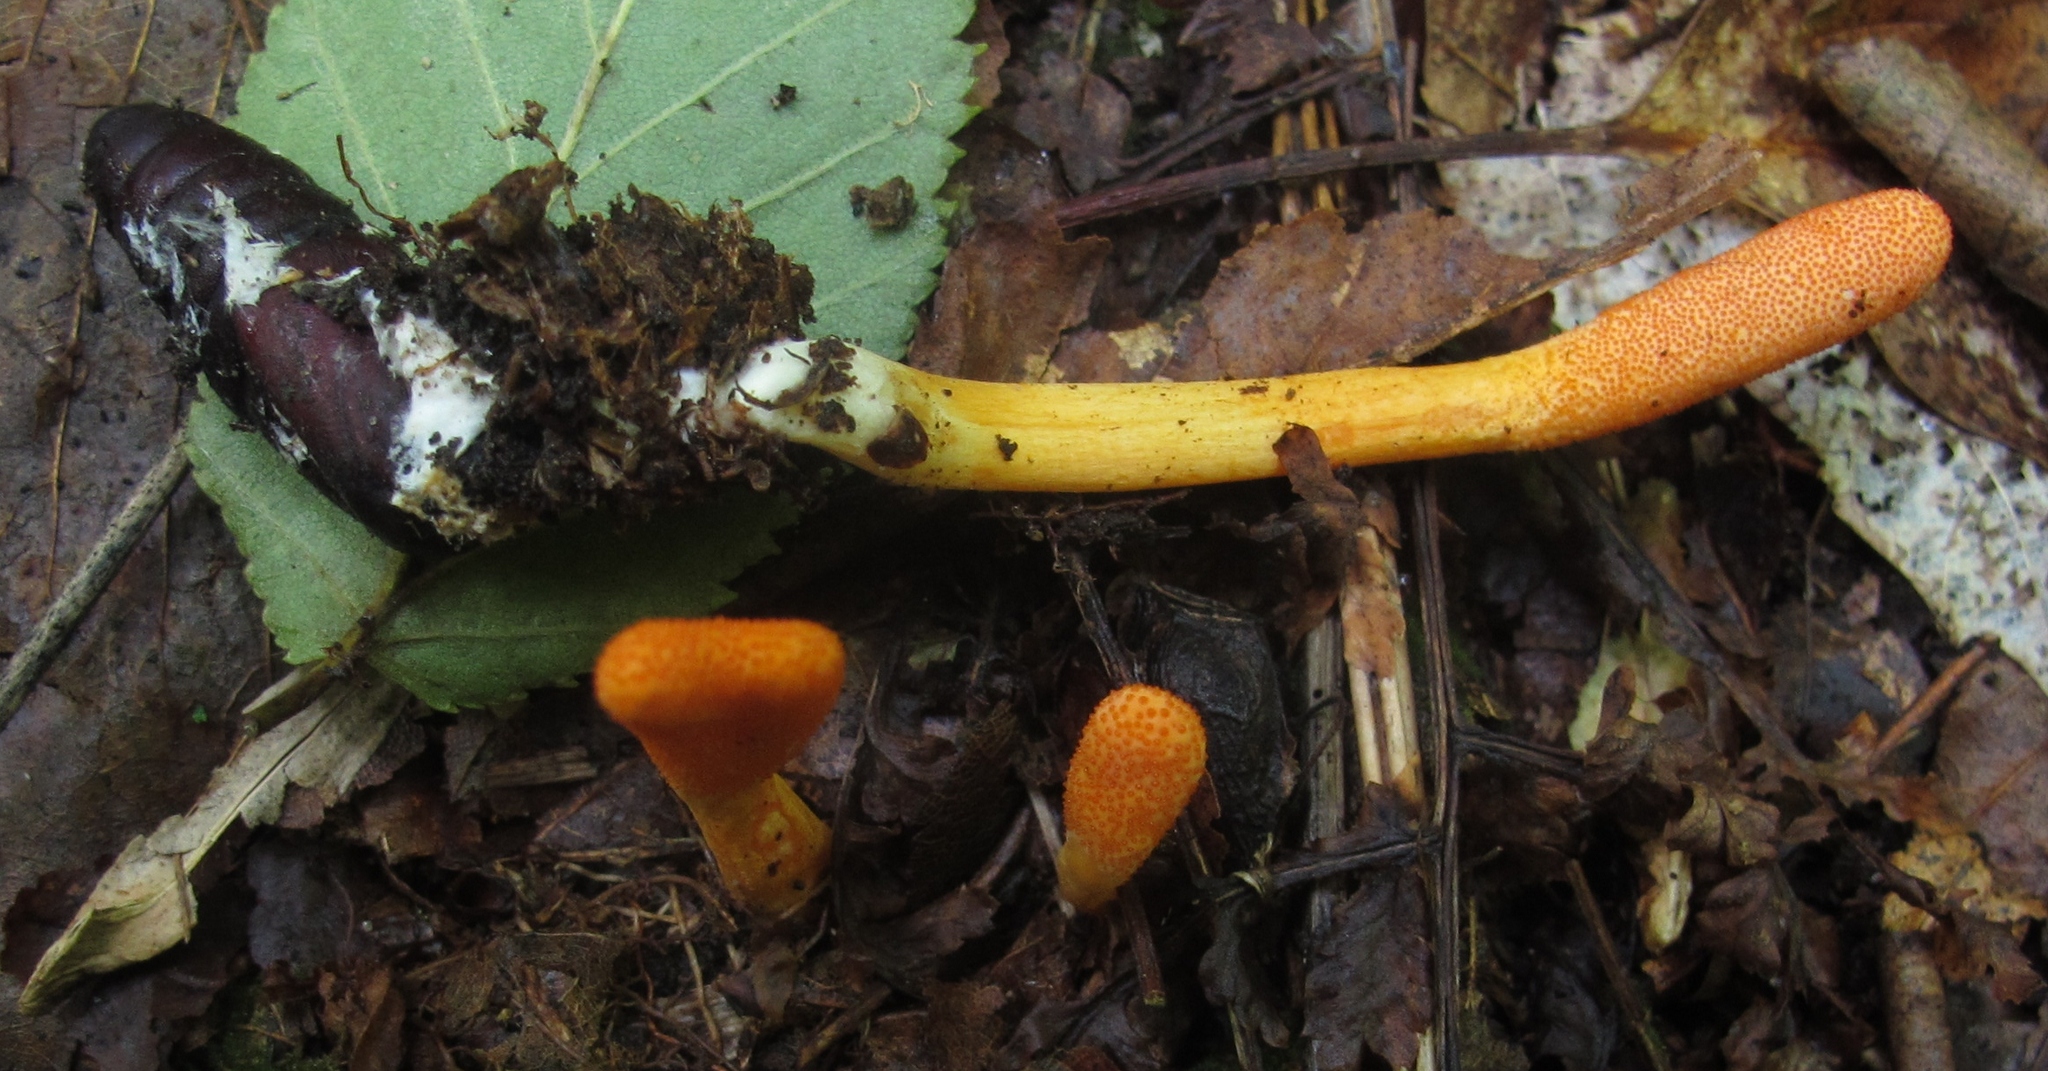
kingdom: Fungi
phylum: Ascomycota
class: Sordariomycetes
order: Hypocreales
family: Cordycipitaceae
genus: Cordyceps
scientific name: Cordyceps militaris
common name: Scarlet caterpillar fungus
